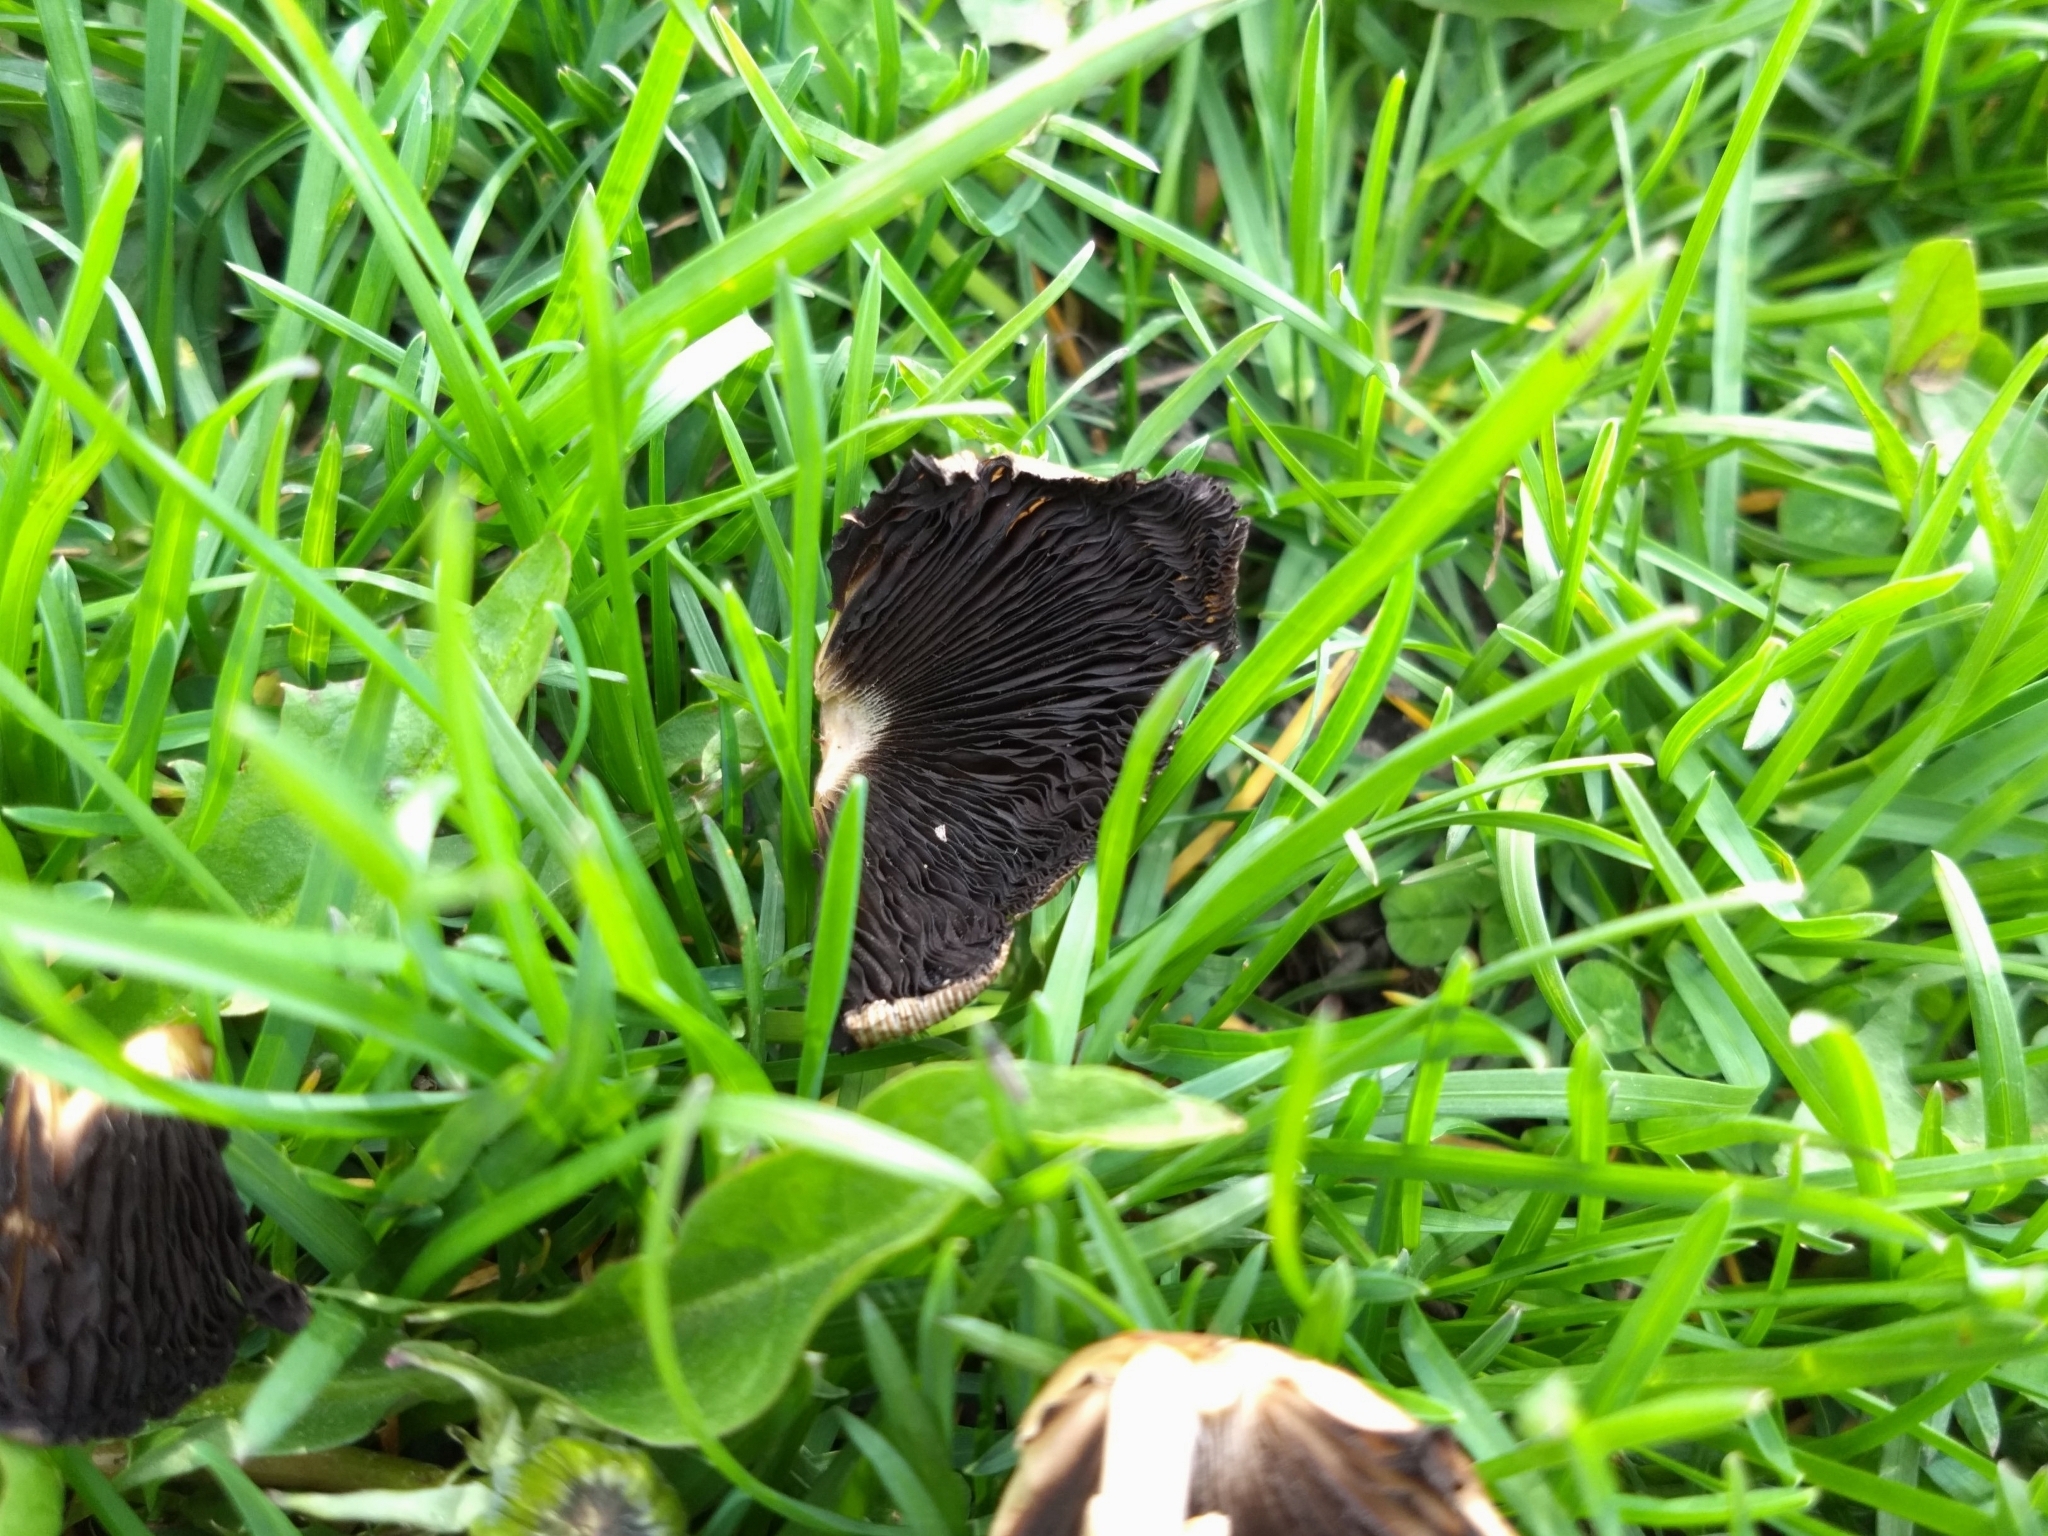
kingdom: Fungi
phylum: Basidiomycota
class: Agaricomycetes
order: Agaricales
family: Psathyrellaceae
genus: Coprinellus
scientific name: Coprinellus micaceus
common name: Glistening ink-cap
